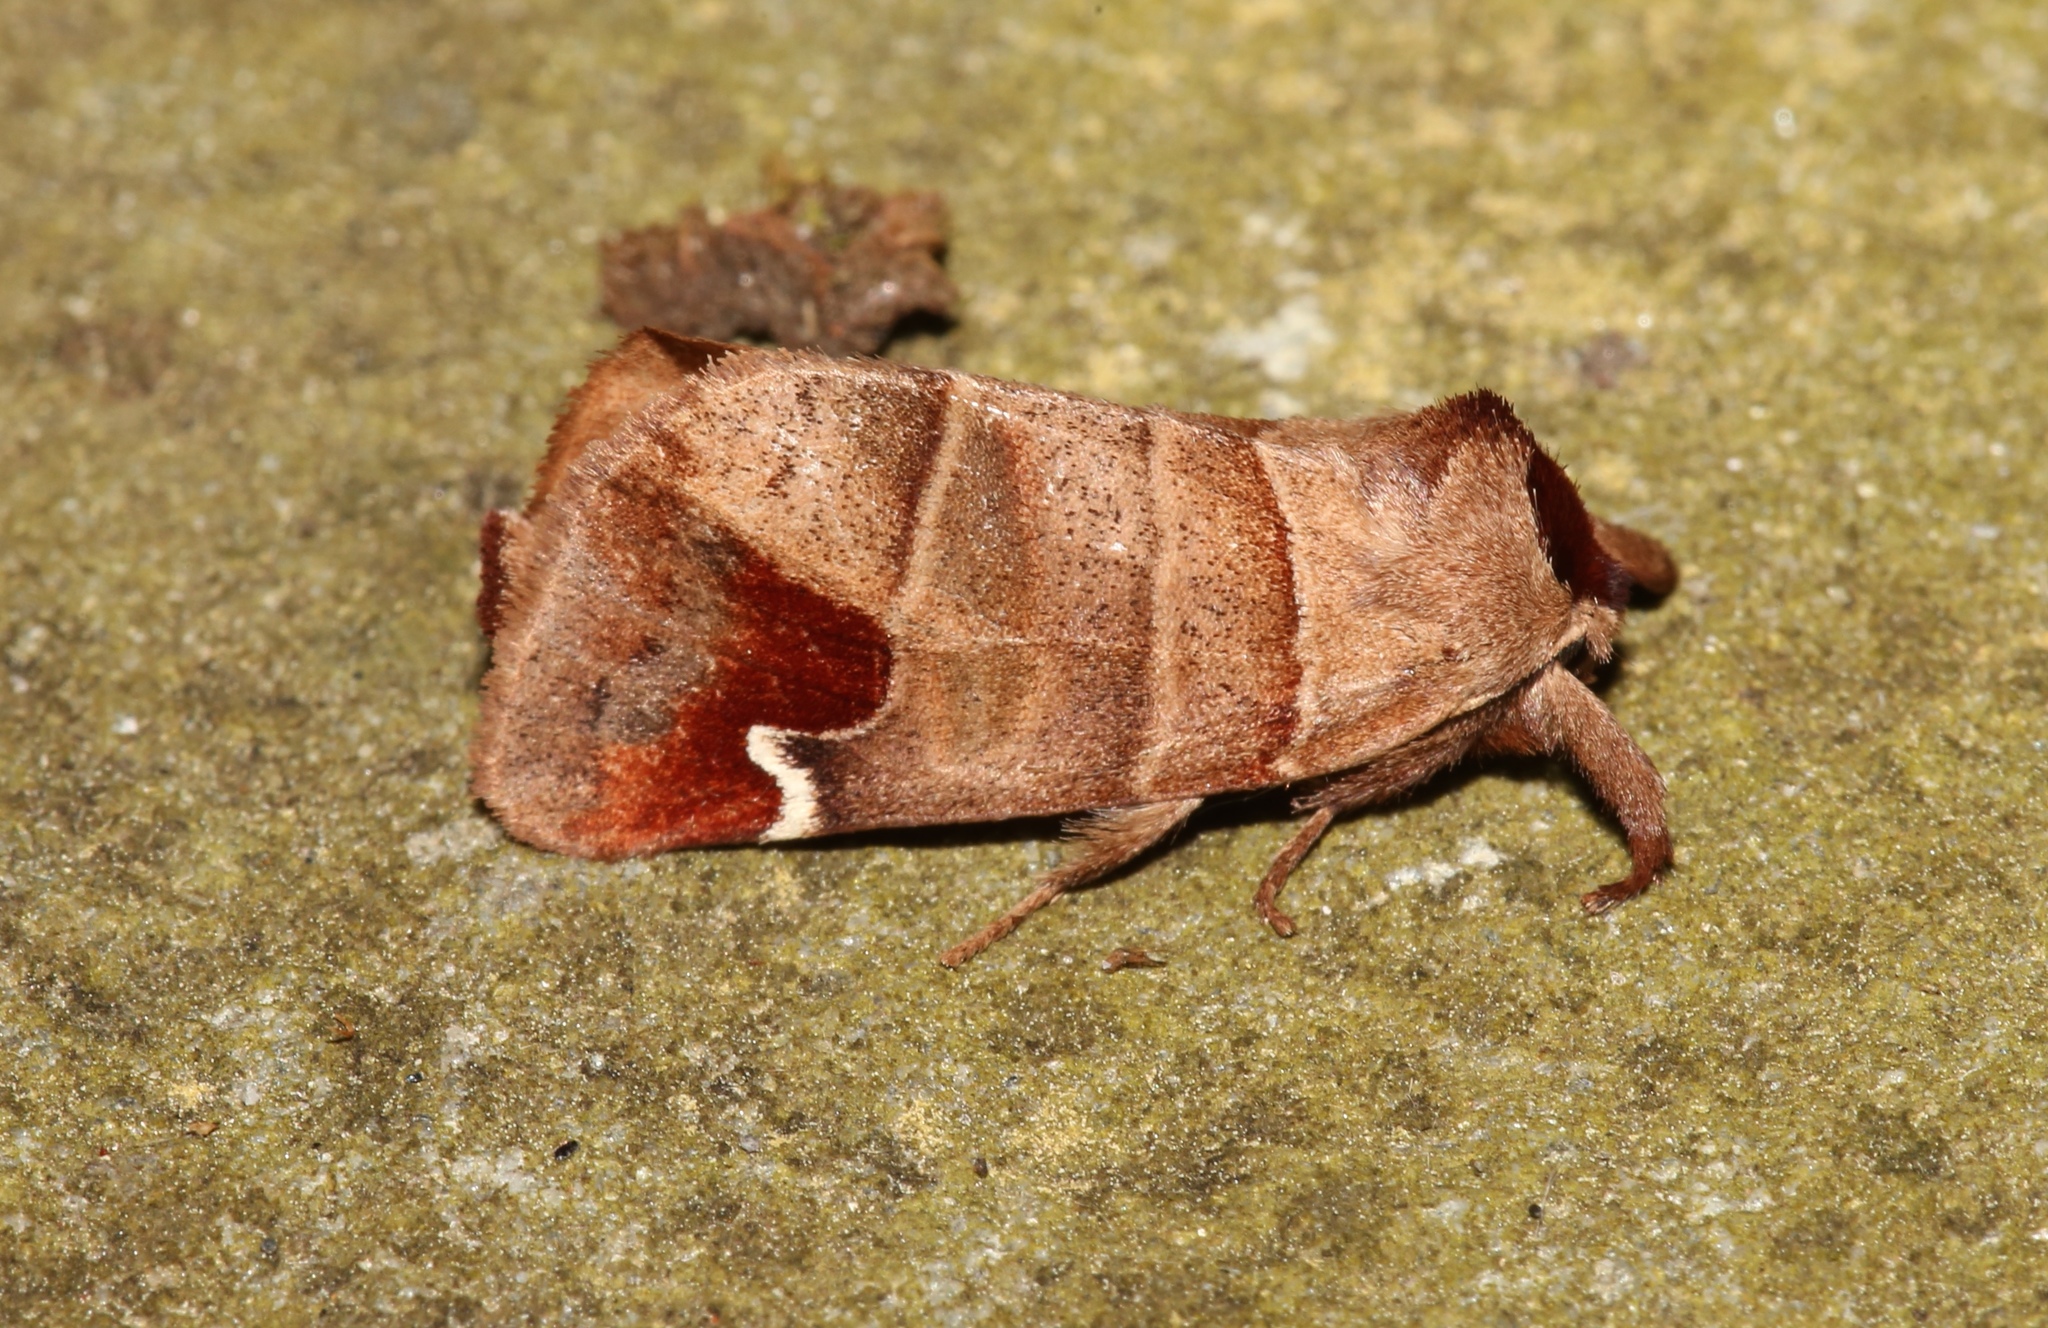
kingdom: Animalia
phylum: Arthropoda
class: Insecta
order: Lepidoptera
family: Notodontidae
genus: Clostera
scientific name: Clostera albosigma
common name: Sigmoid prominent
